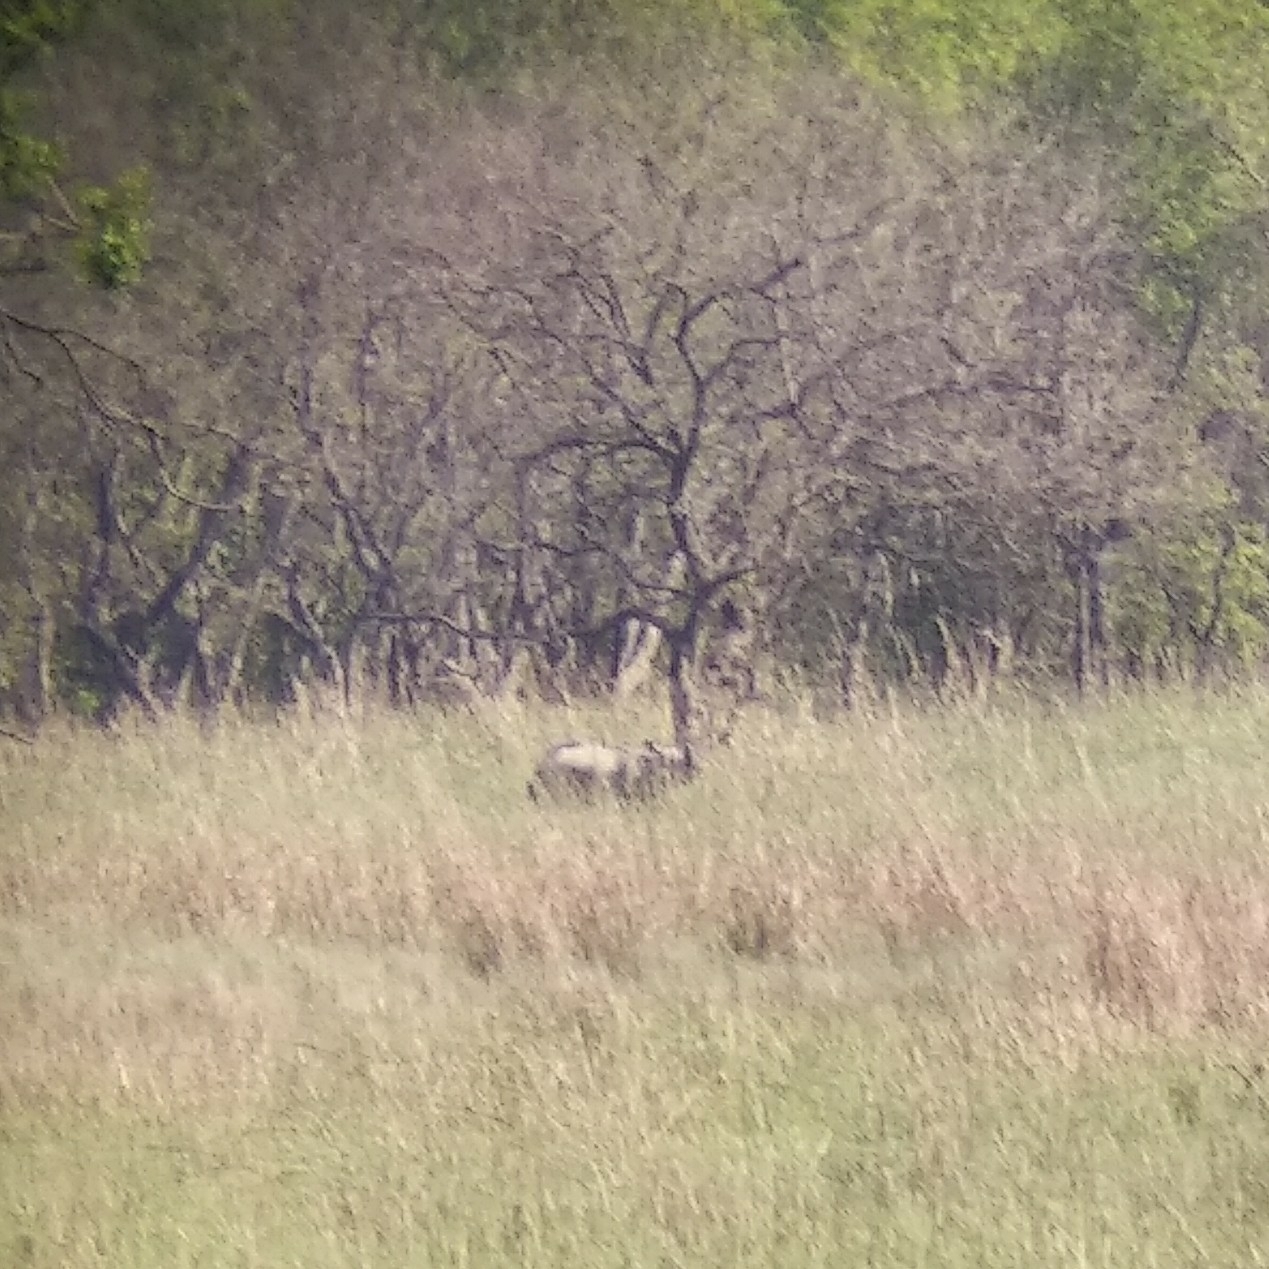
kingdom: Animalia
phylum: Chordata
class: Mammalia
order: Perissodactyla
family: Rhinocerotidae
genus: Rhinoceros
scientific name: Rhinoceros unicornis
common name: Indian rhinoceros
